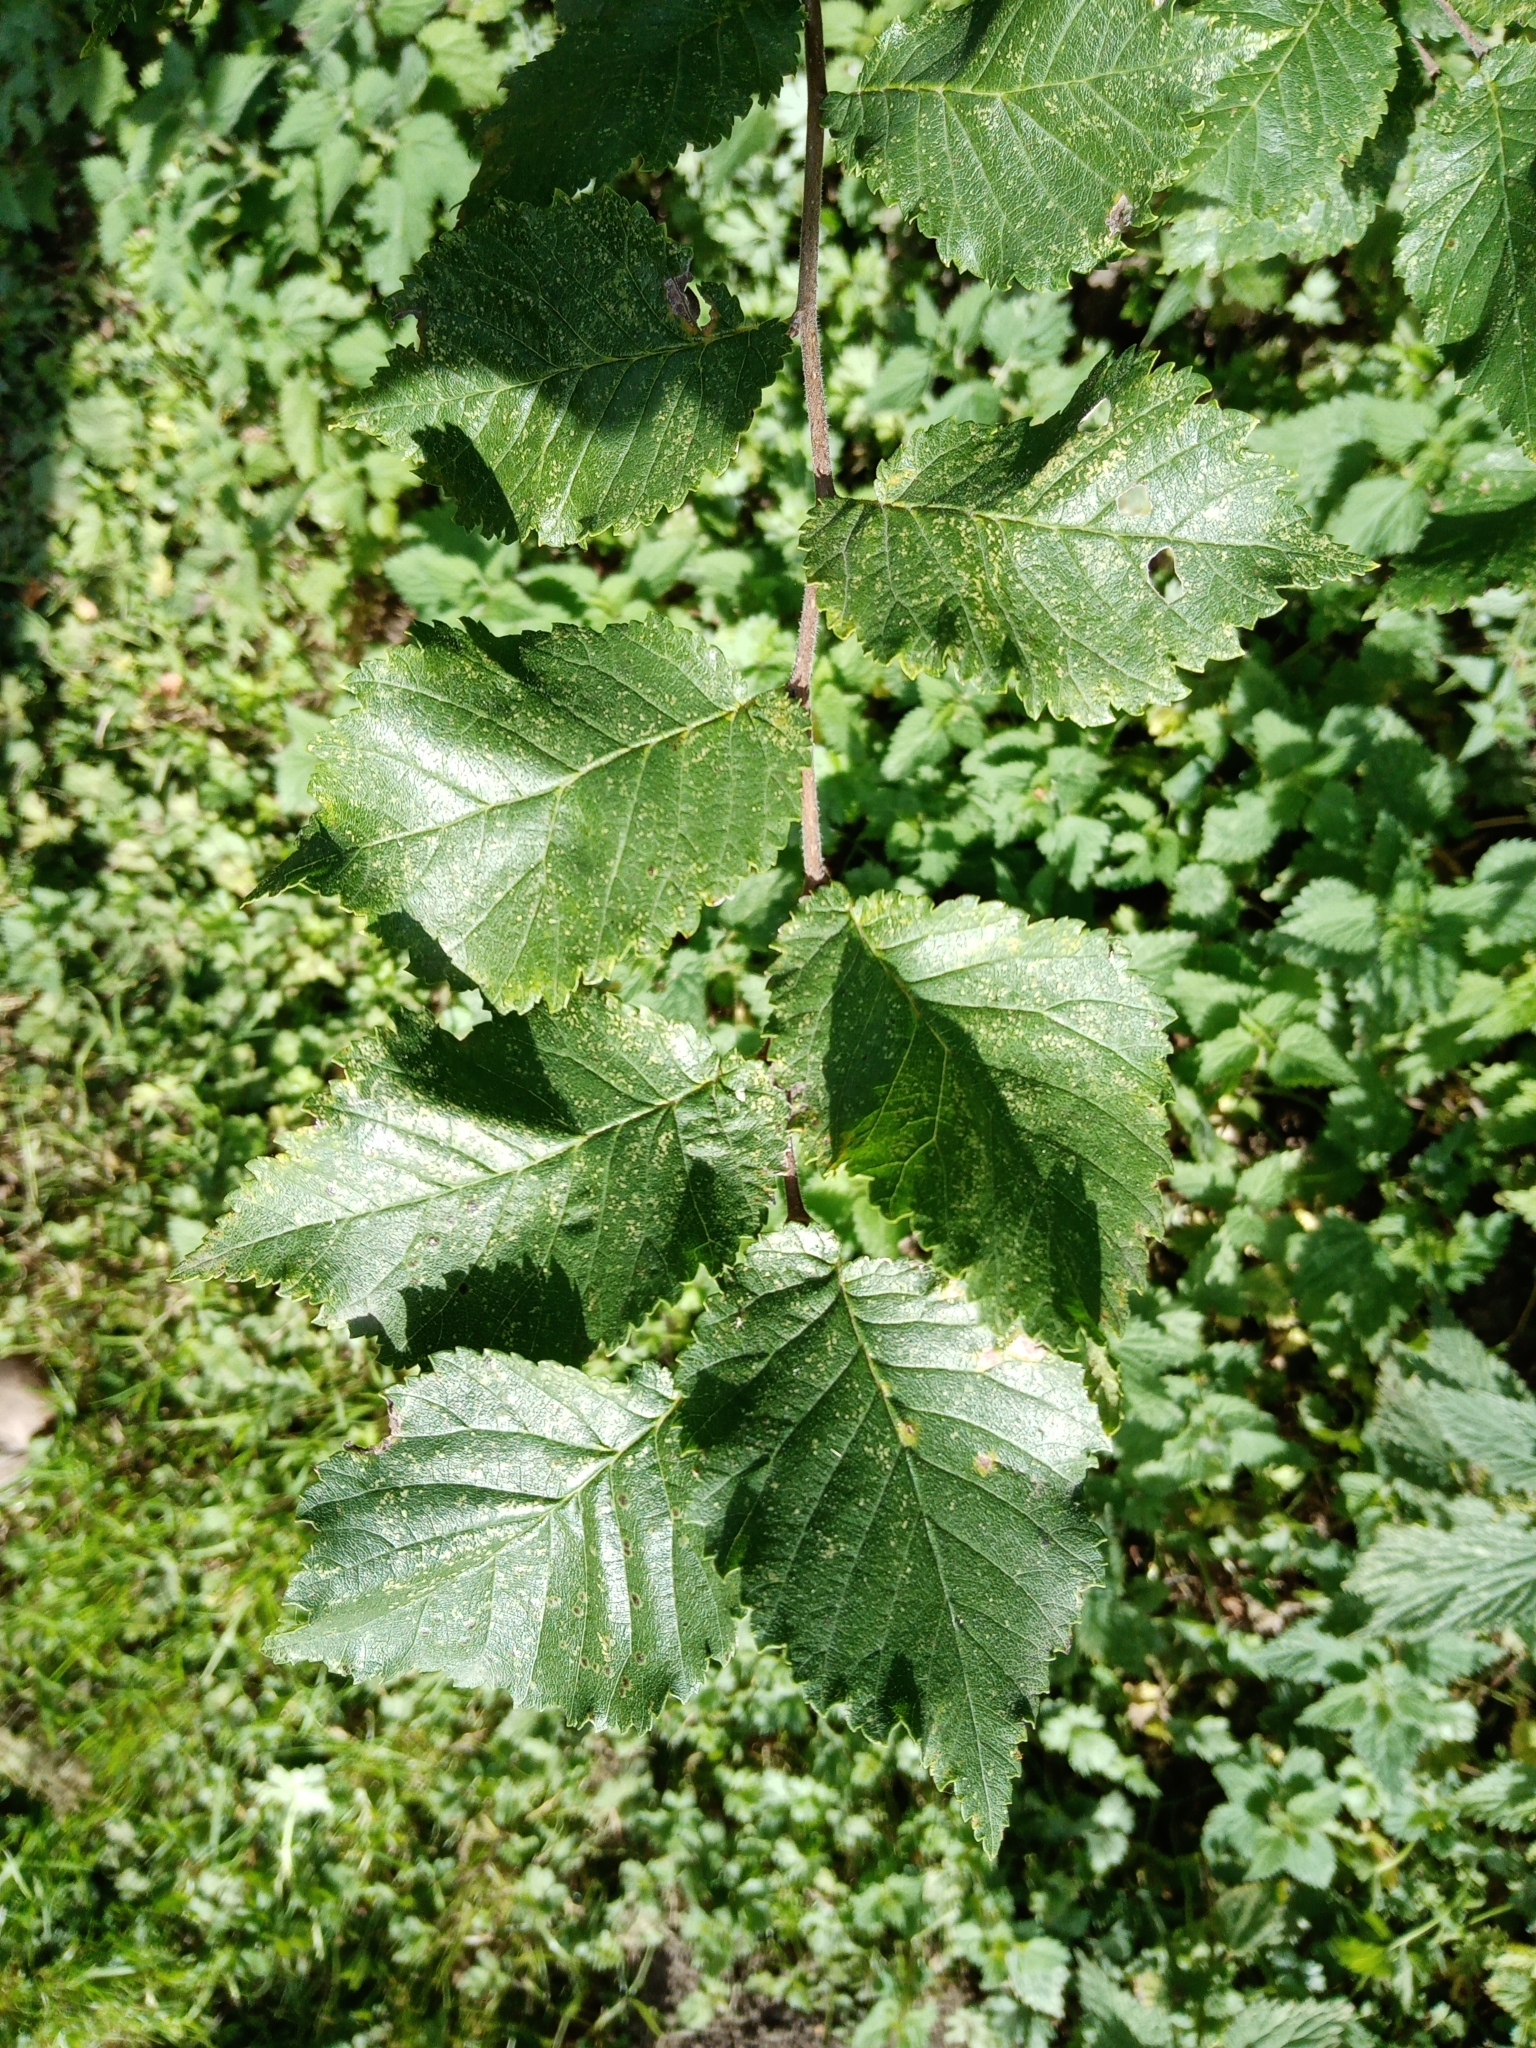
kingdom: Plantae
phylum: Tracheophyta
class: Magnoliopsida
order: Rosales
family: Ulmaceae
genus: Ulmus
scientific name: Ulmus minor
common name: Small-leaved elm
